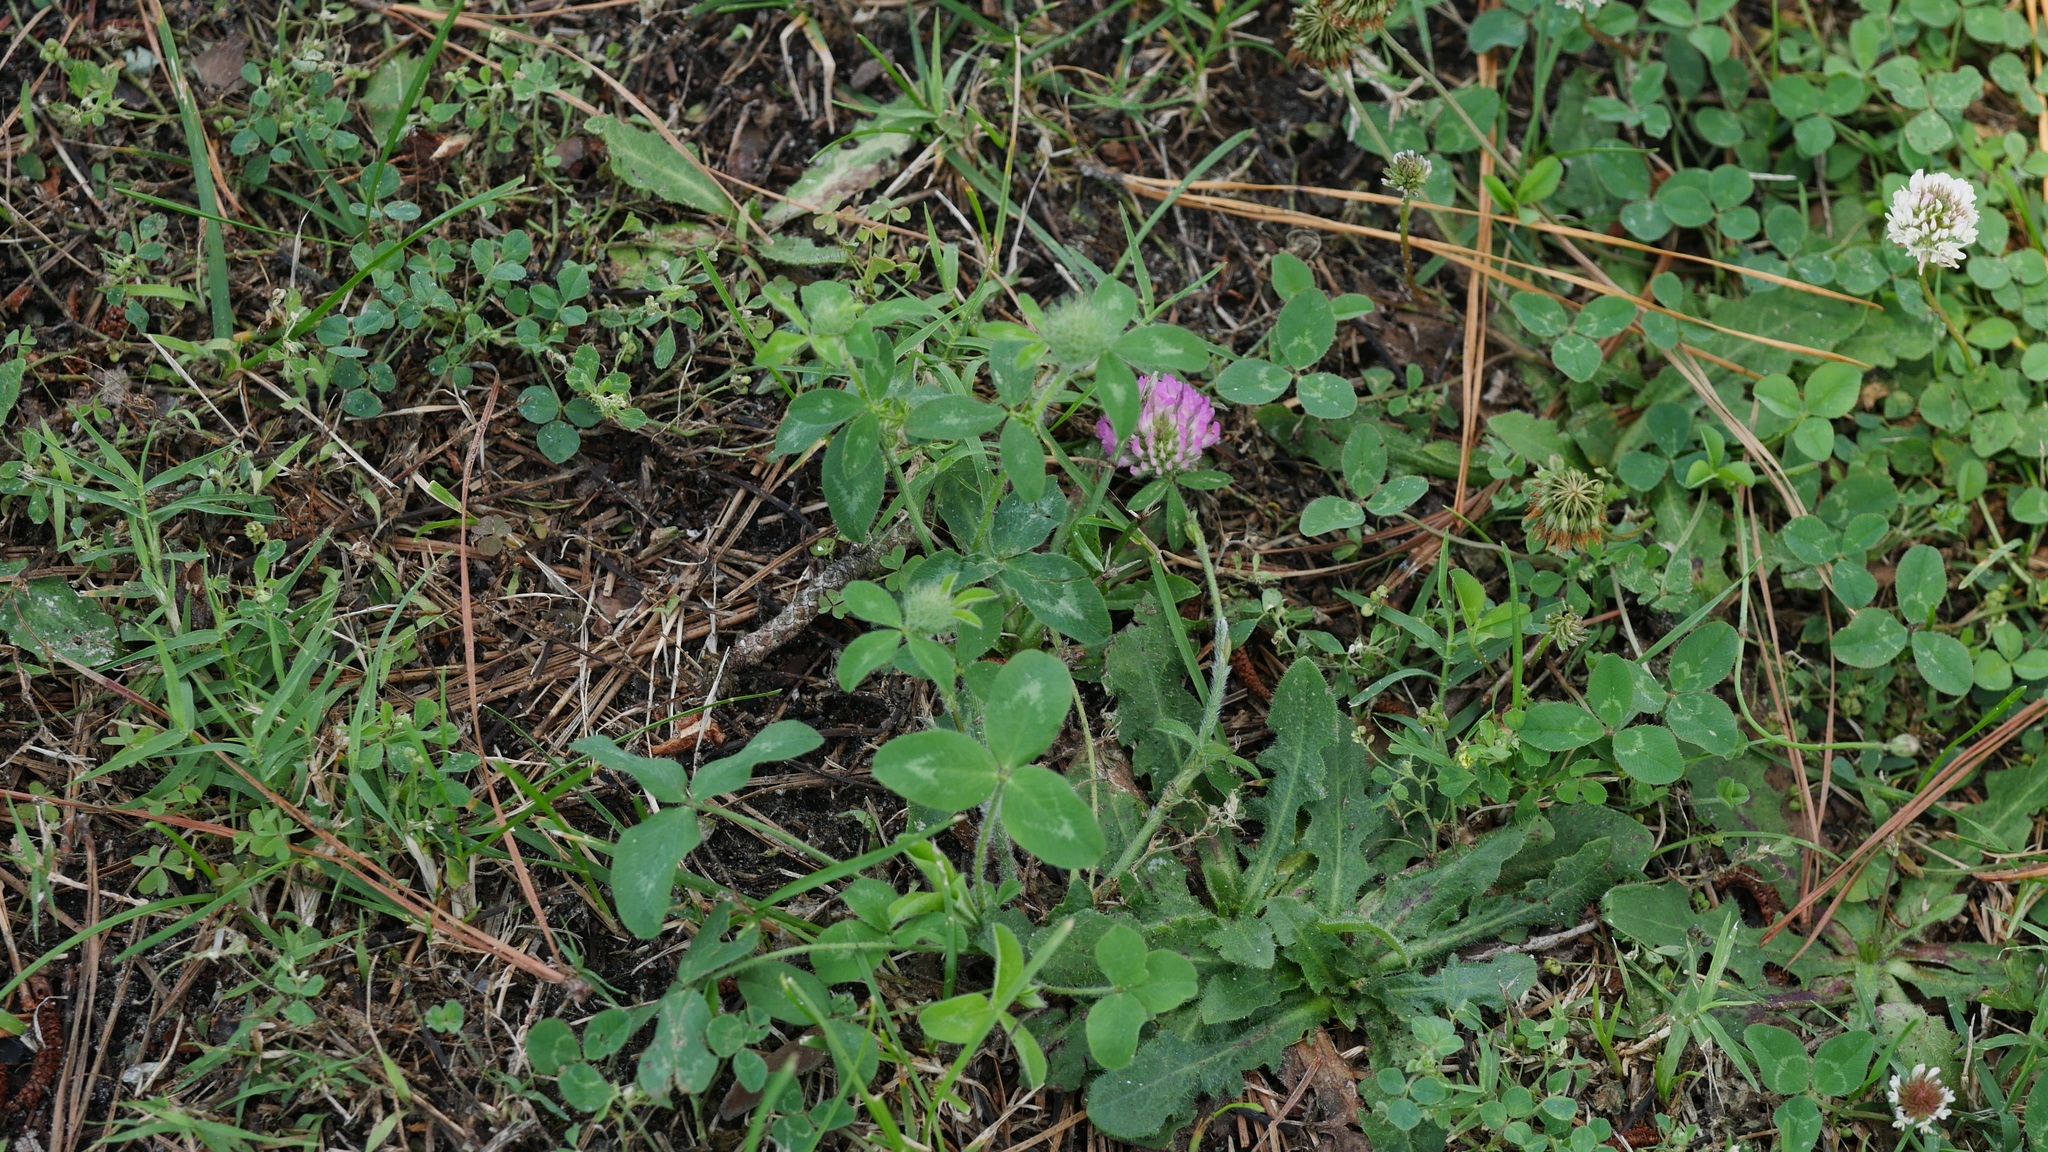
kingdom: Plantae
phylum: Tracheophyta
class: Magnoliopsida
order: Fabales
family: Fabaceae
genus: Trifolium
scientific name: Trifolium pratense
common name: Red clover
